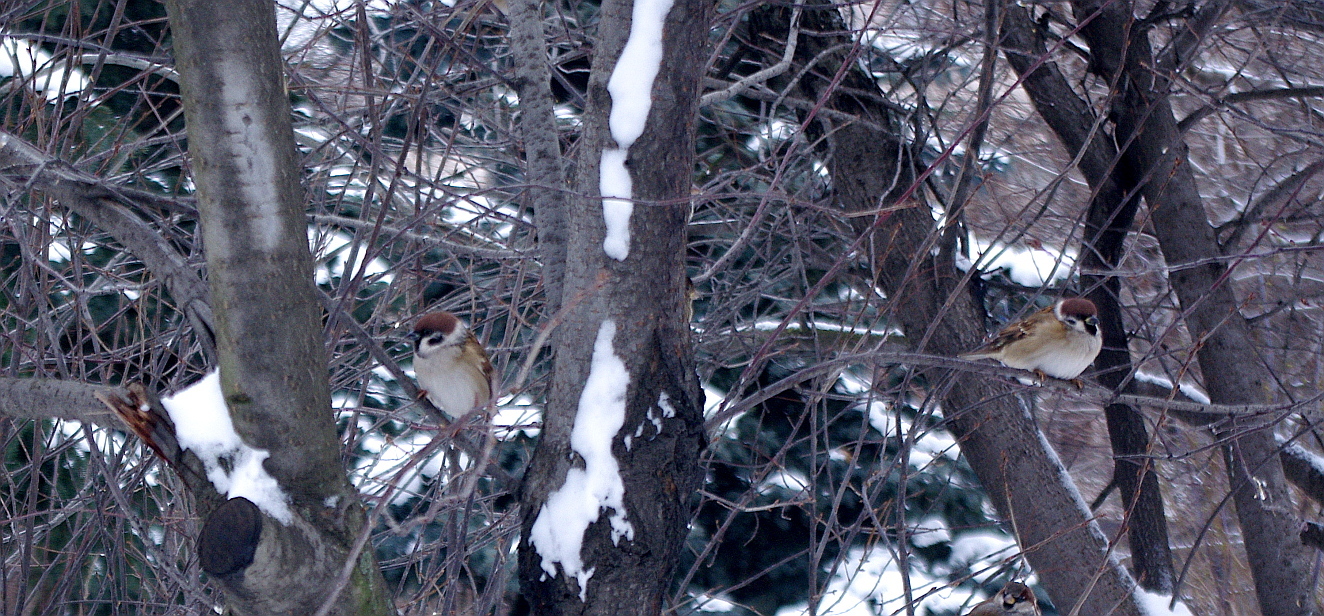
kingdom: Animalia
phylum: Chordata
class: Aves
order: Passeriformes
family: Passeridae
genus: Passer
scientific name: Passer montanus
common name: Eurasian tree sparrow
